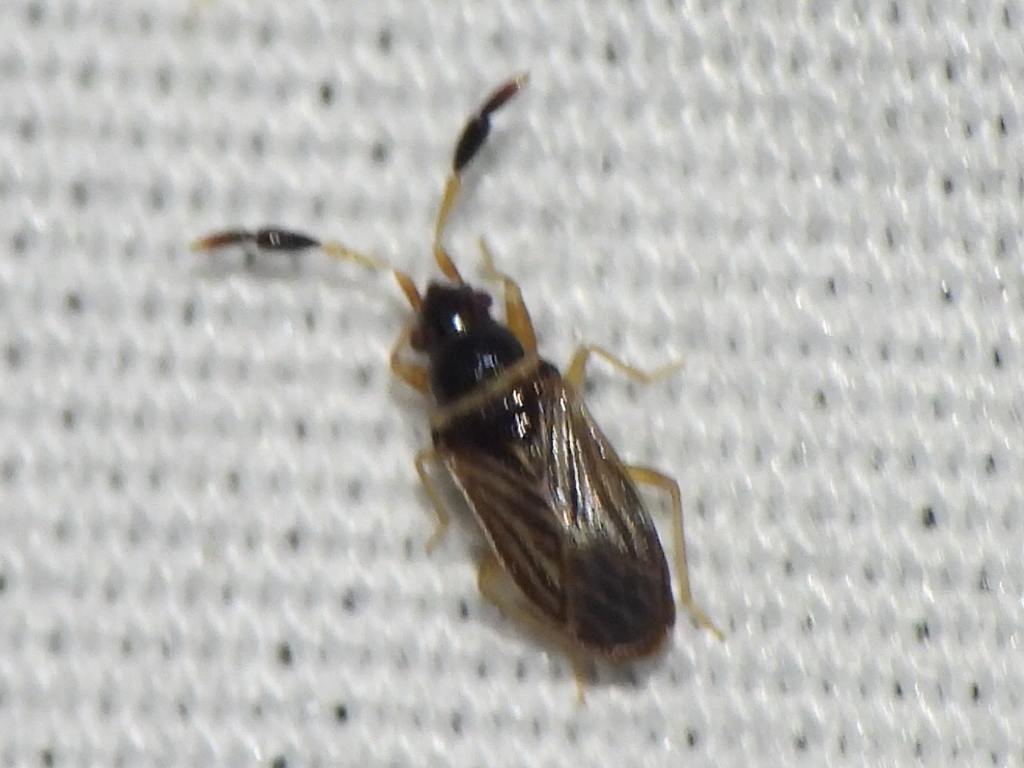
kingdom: Animalia
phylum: Arthropoda
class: Insecta
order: Hemiptera
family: Rhyparochromidae
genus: Ptochiomera
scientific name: Ptochiomera nodosa
